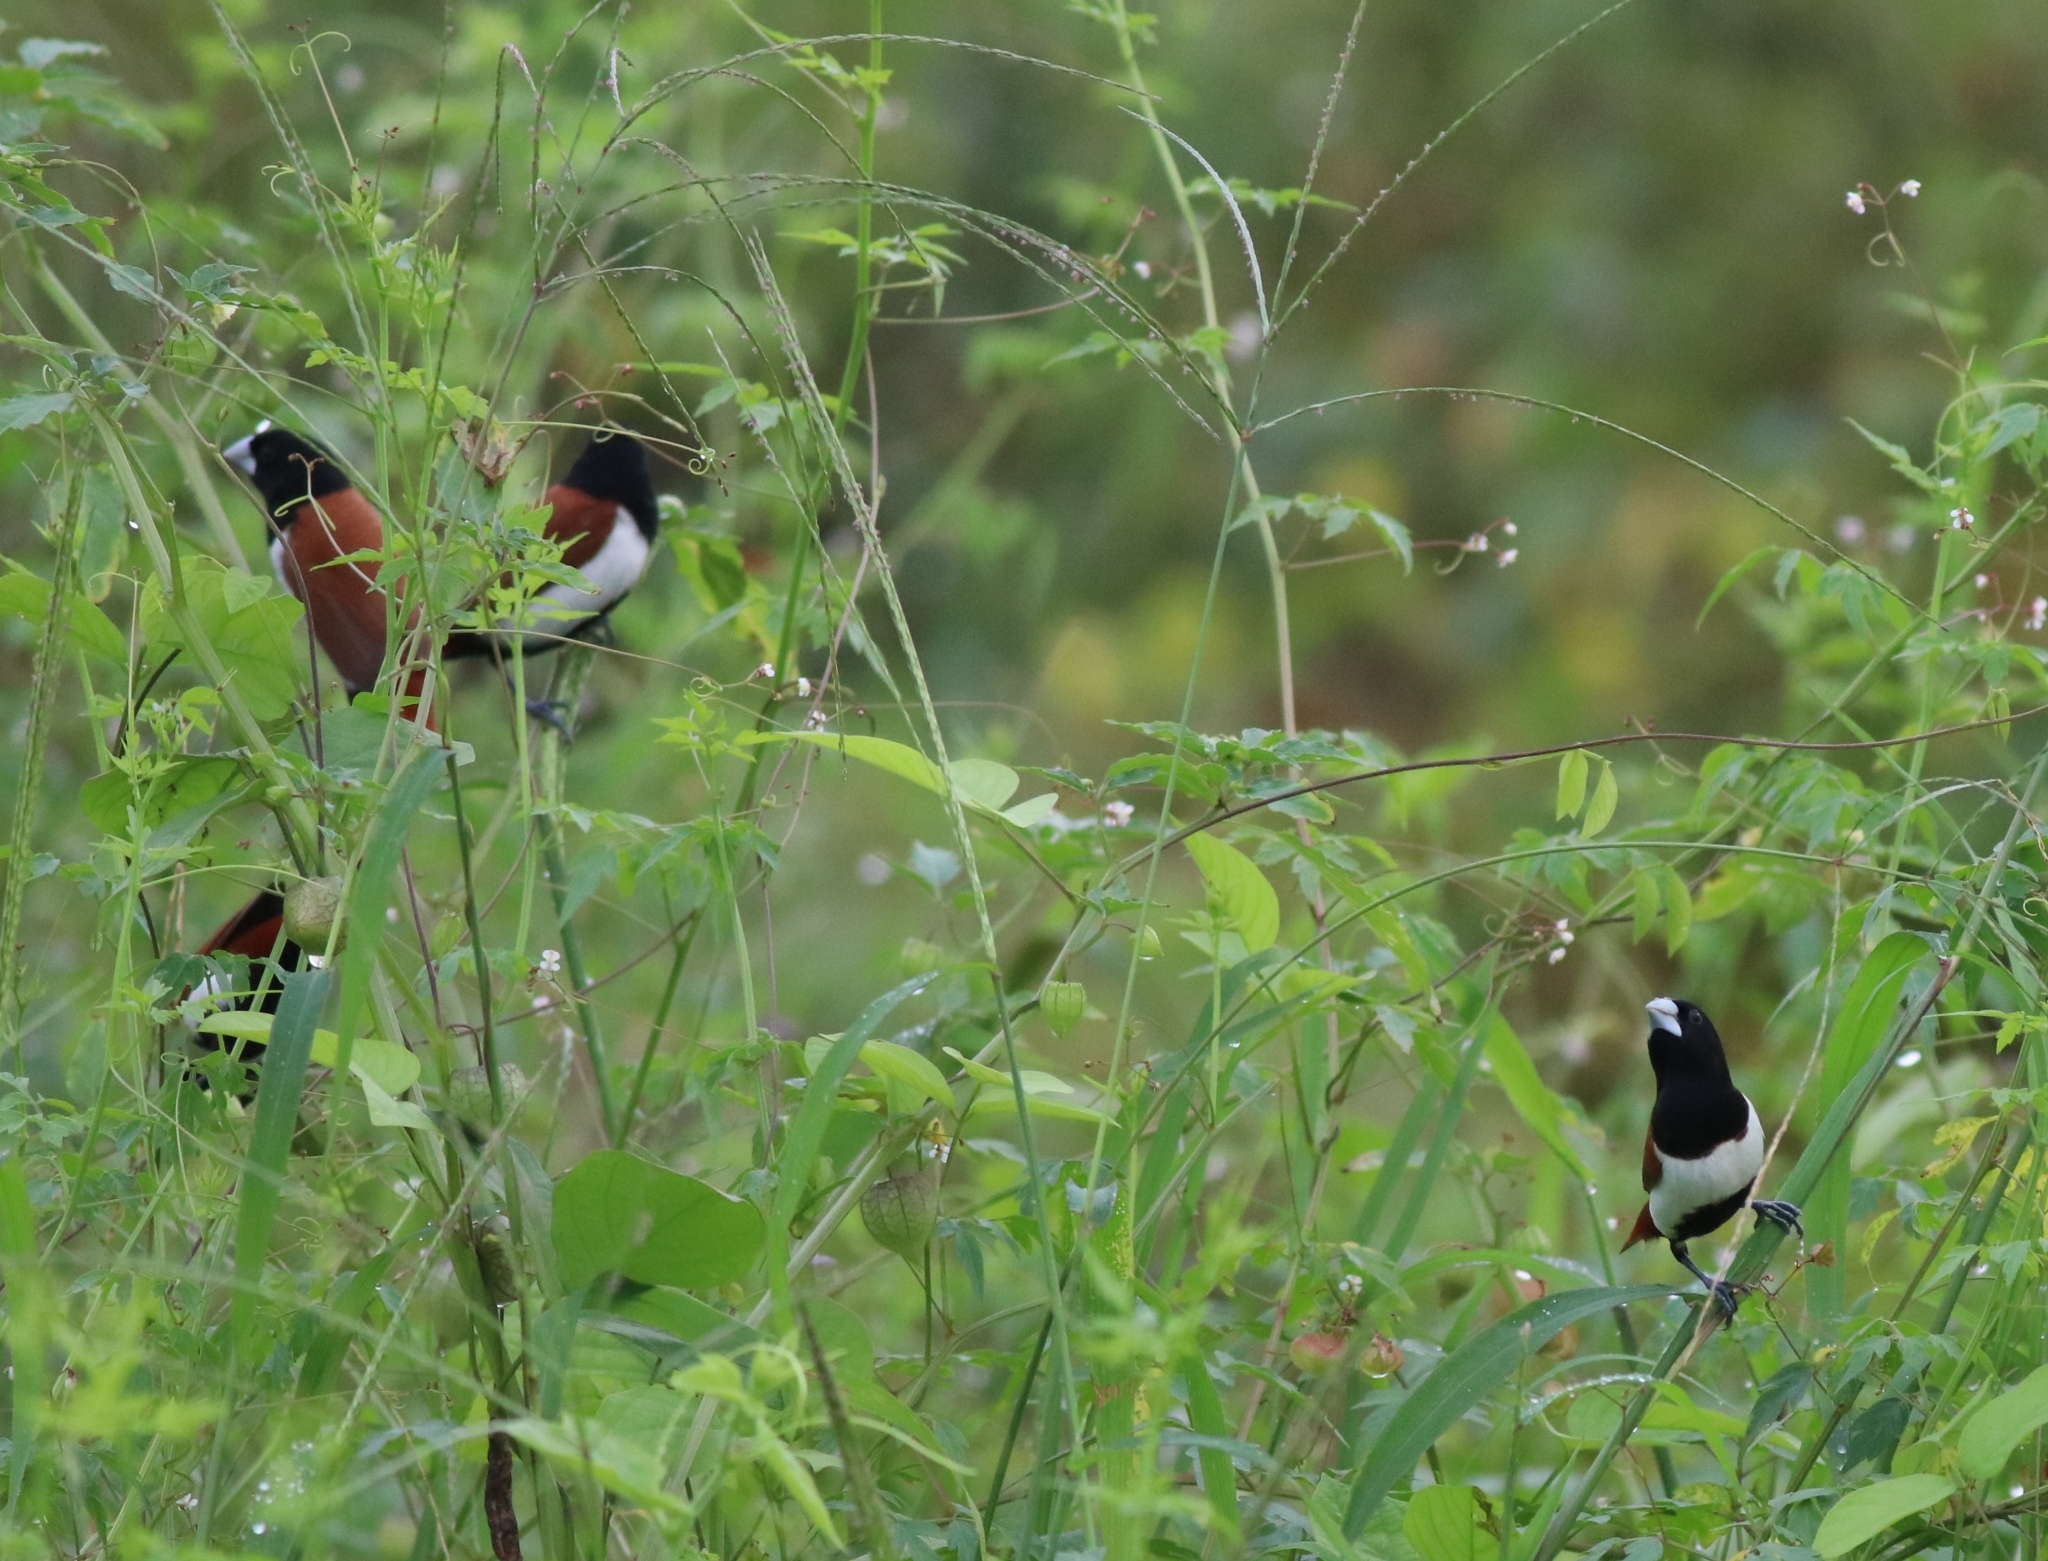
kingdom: Animalia
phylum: Chordata
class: Aves
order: Passeriformes
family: Estrildidae
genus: Lonchura
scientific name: Lonchura malacca
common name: Tricolored munia
